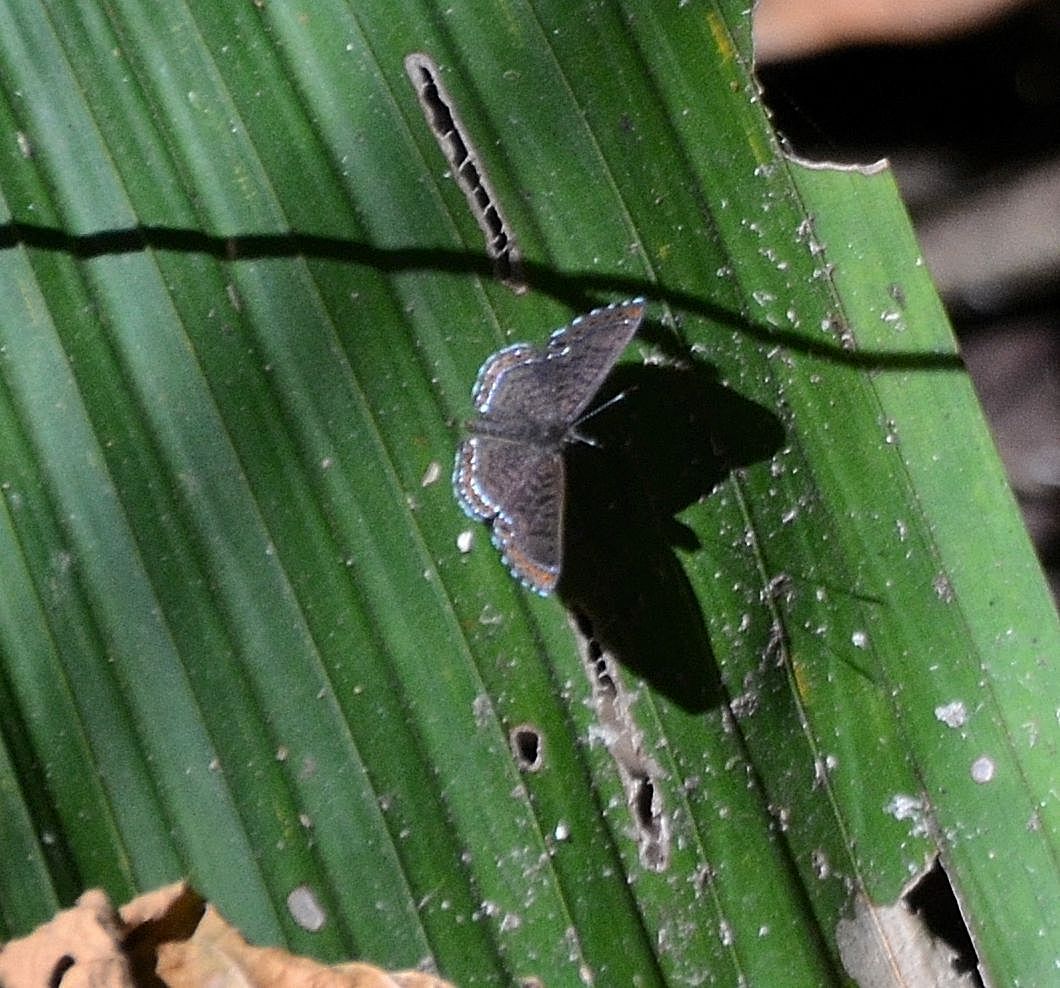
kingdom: Animalia
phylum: Arthropoda
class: Insecta
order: Lepidoptera
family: Riodinidae
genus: Detritivora
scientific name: Detritivora
